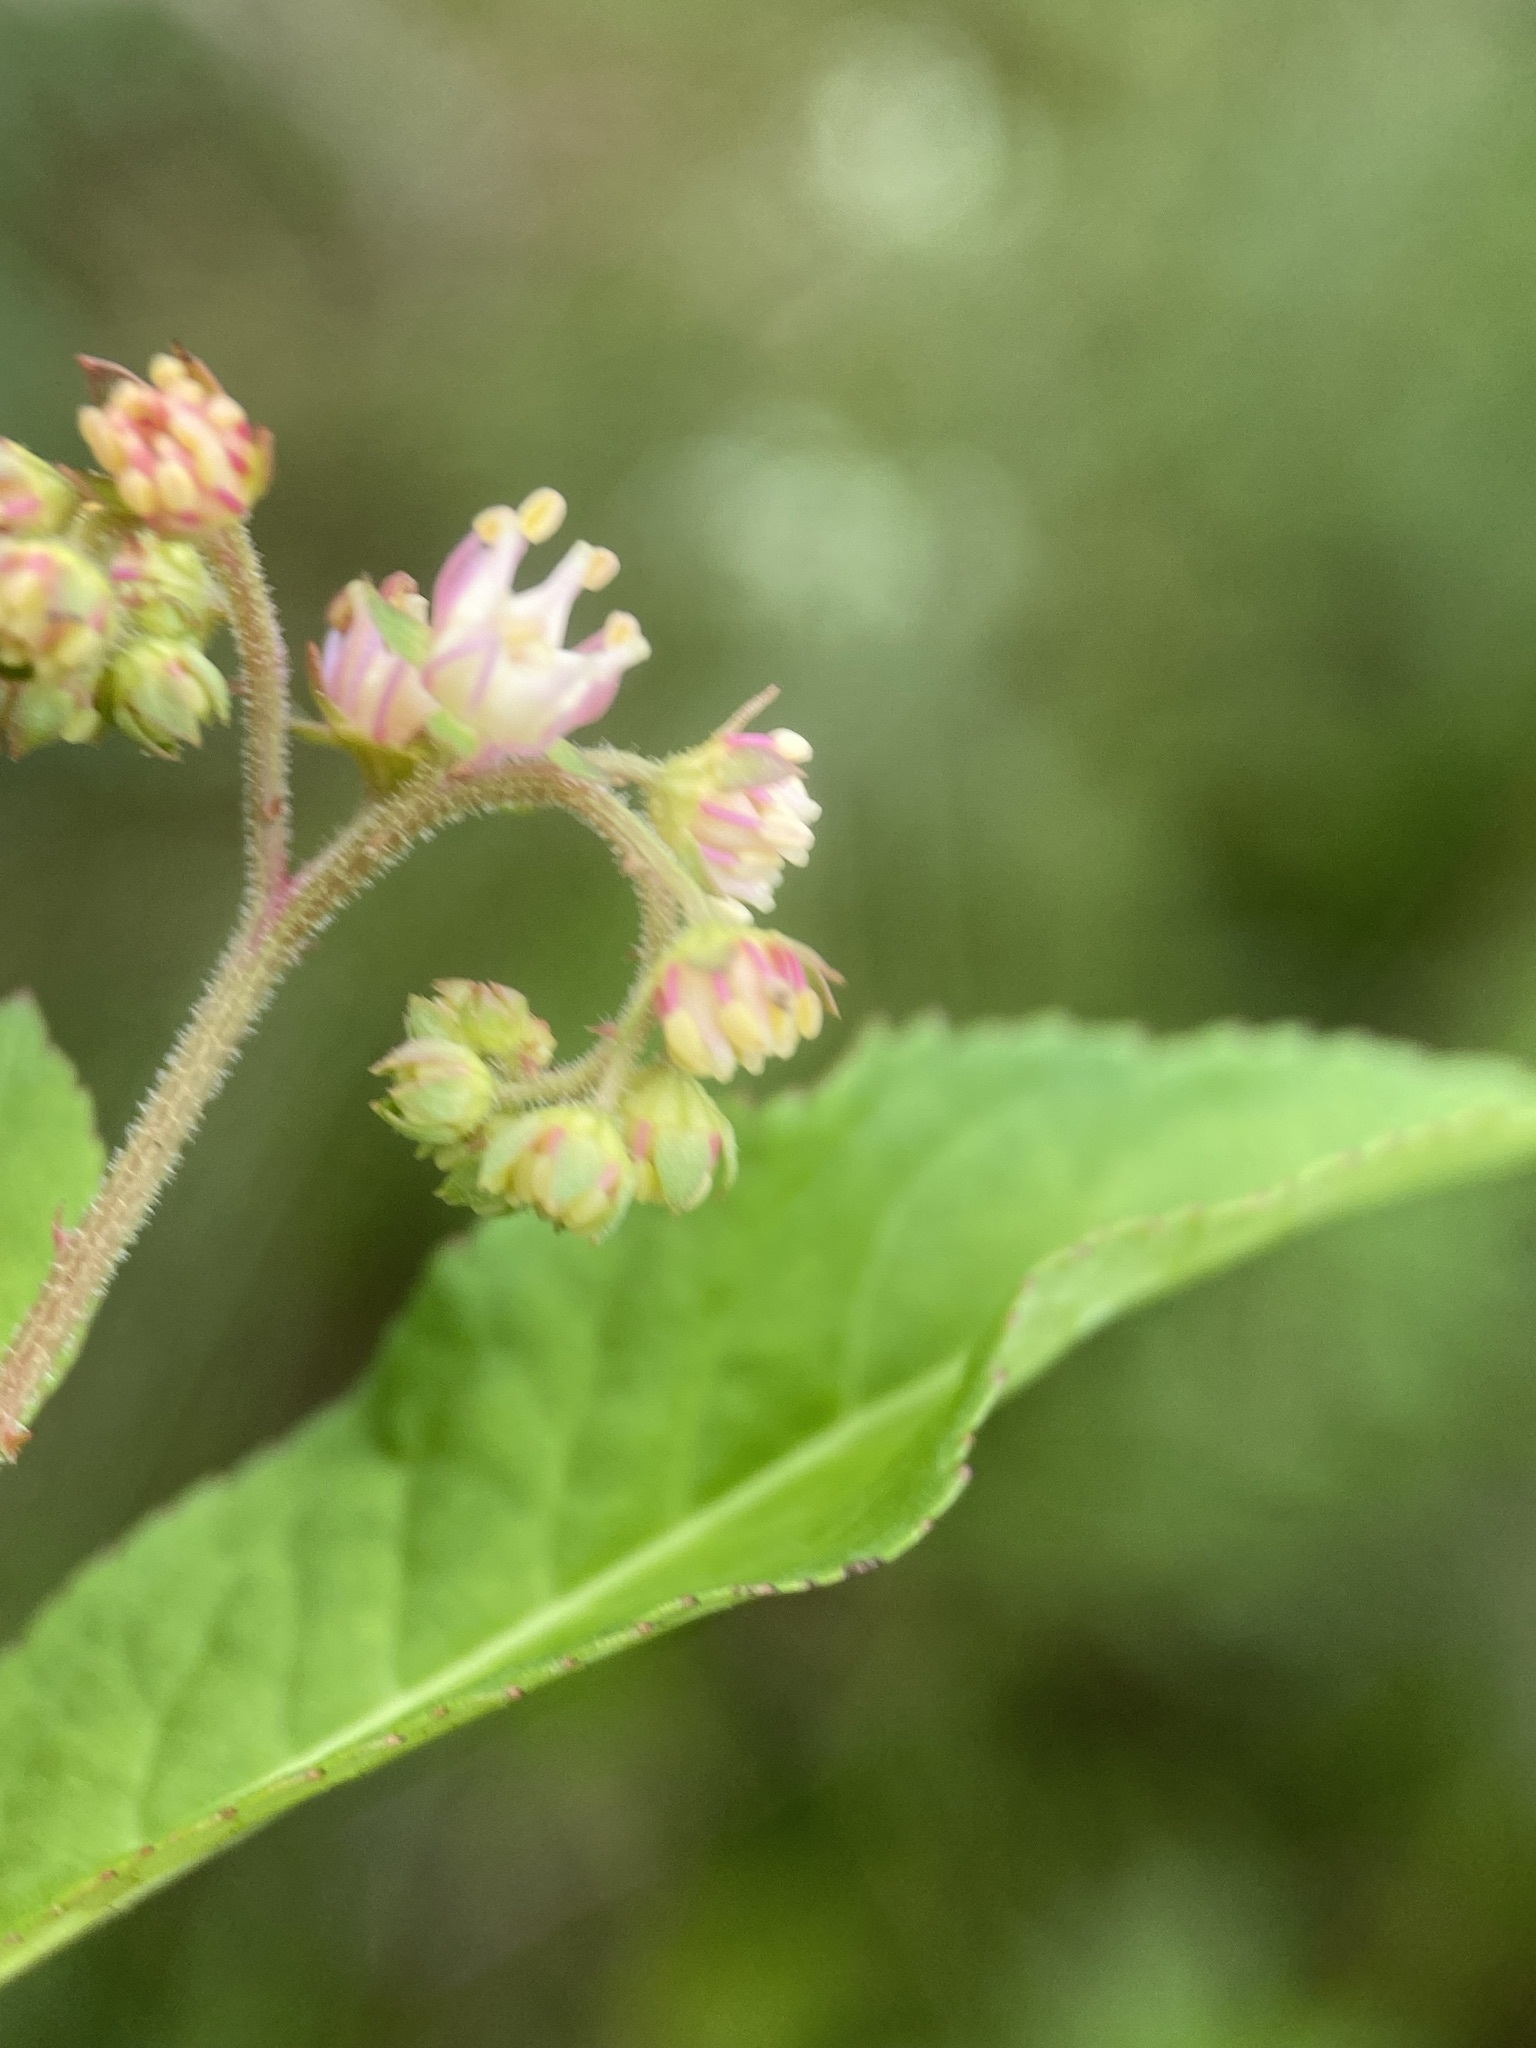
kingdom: Plantae
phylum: Tracheophyta
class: Magnoliopsida
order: Saxifragales
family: Penthoraceae
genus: Penthorum
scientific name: Penthorum sedoides
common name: Ditch stonecrop
